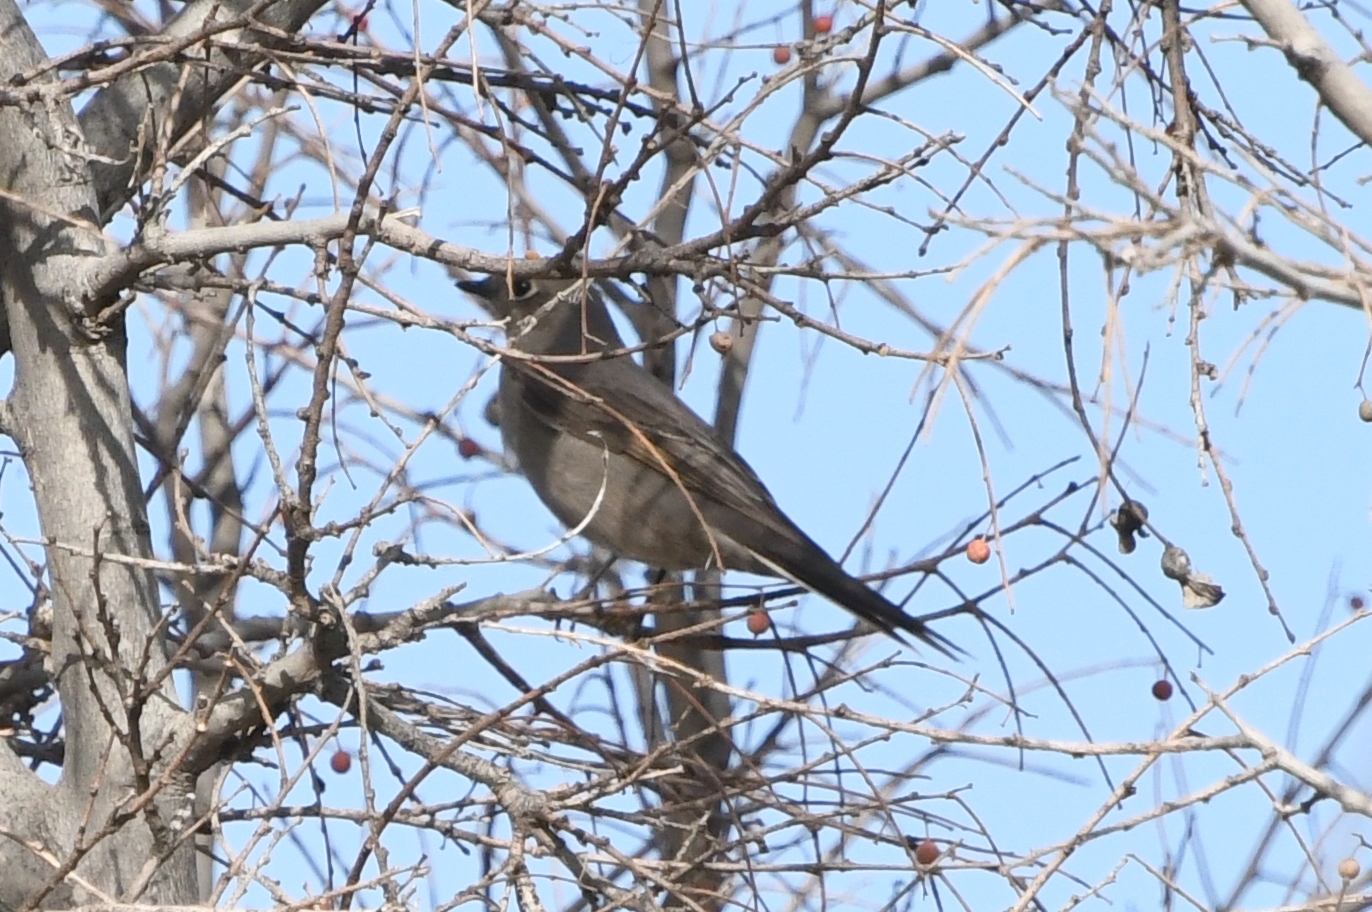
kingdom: Animalia
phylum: Chordata
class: Aves
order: Passeriformes
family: Turdidae
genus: Myadestes
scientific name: Myadestes townsendi
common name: Townsend's solitaire
